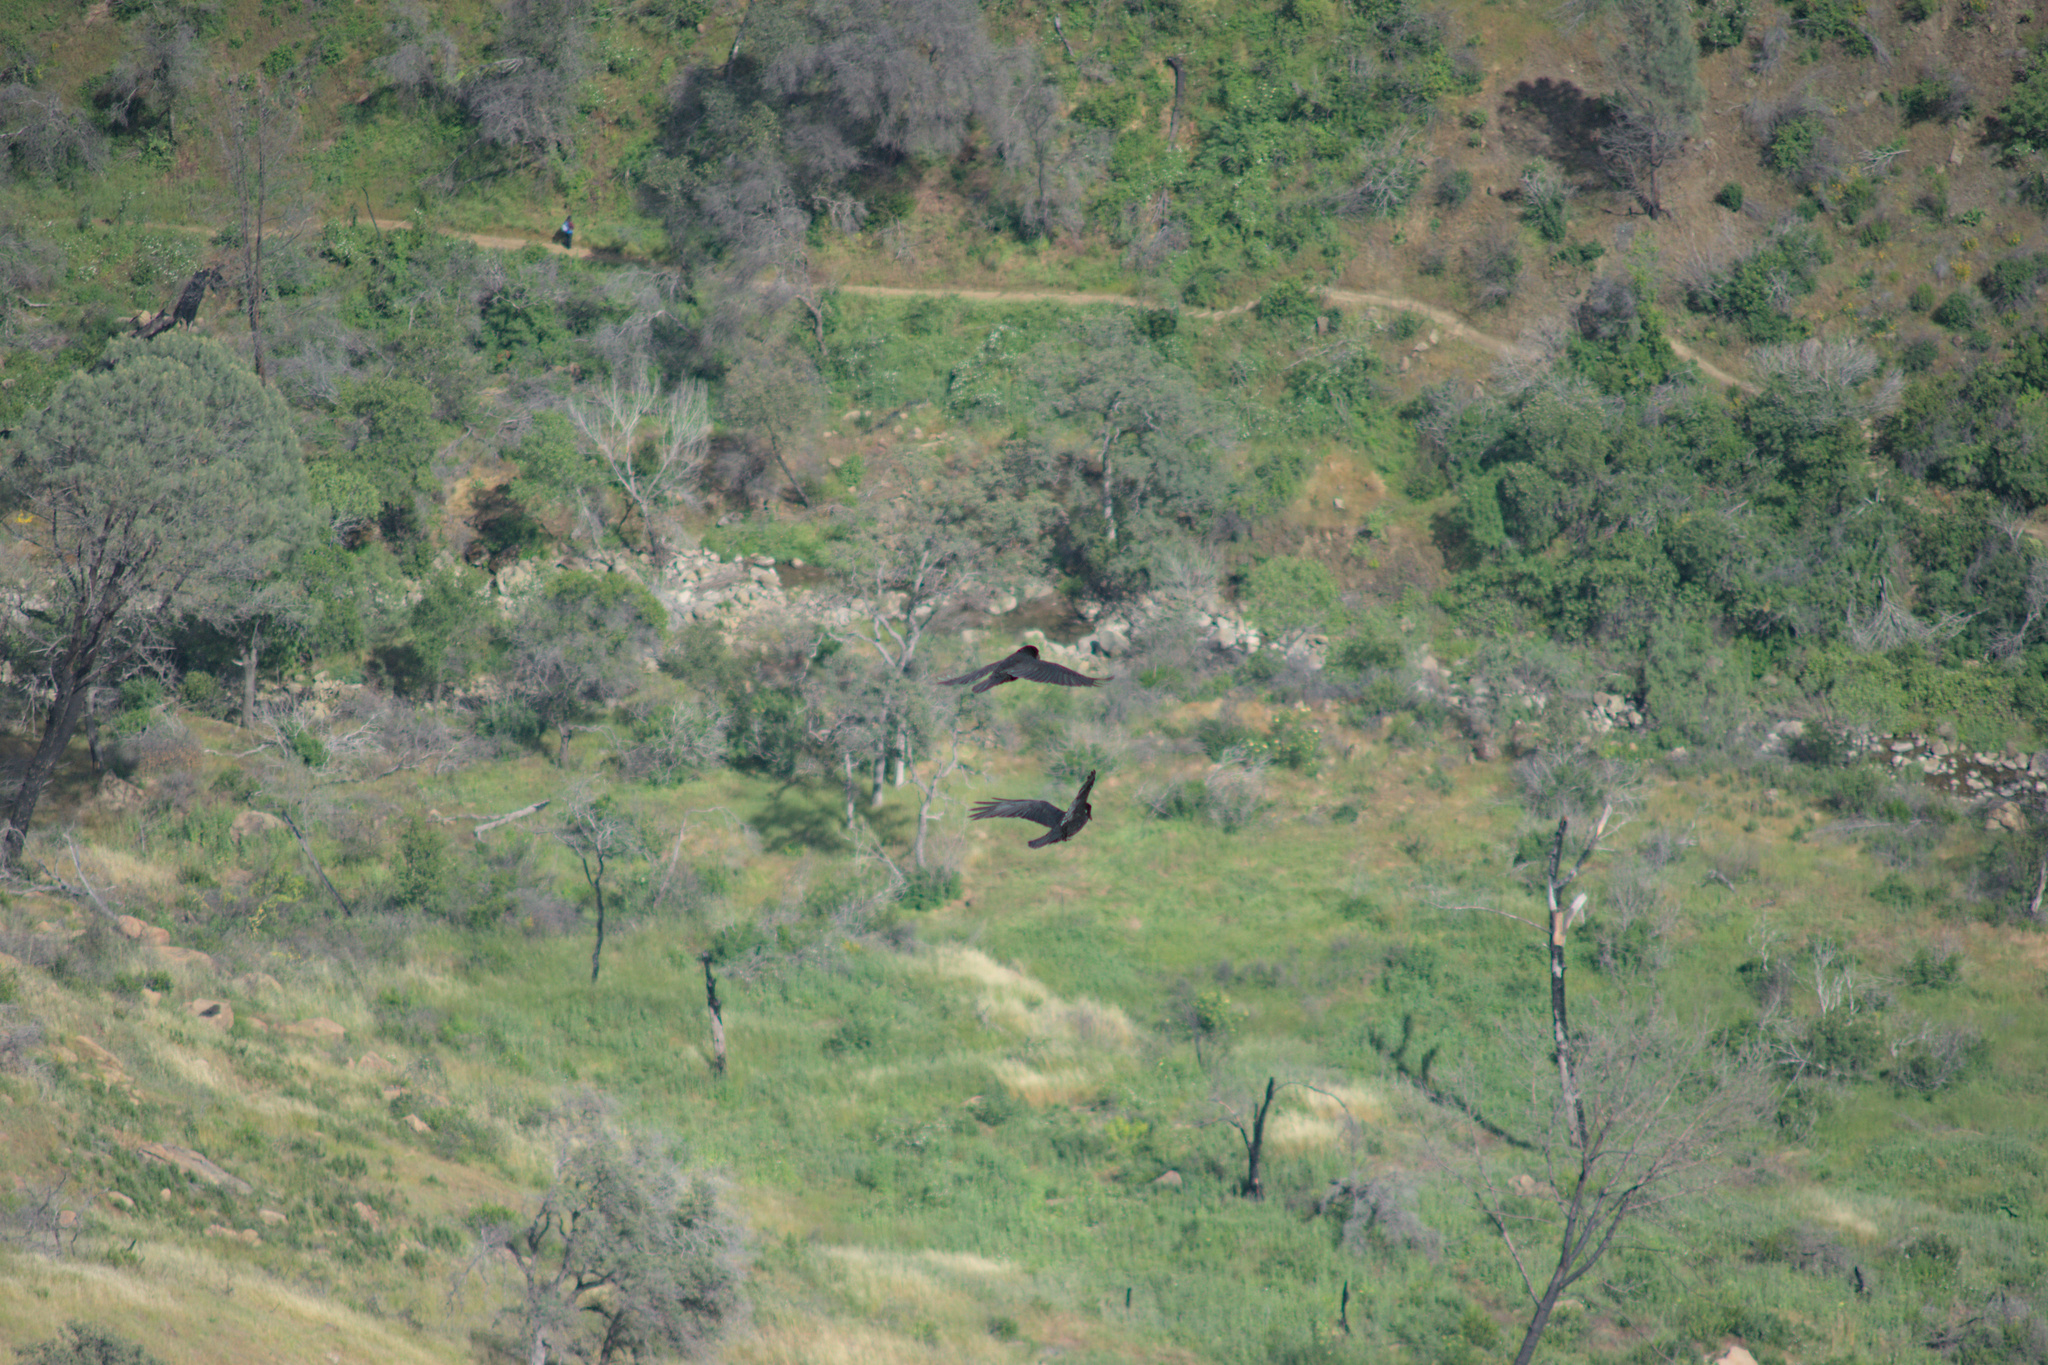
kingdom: Animalia
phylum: Chordata
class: Aves
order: Passeriformes
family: Corvidae
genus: Corvus
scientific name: Corvus corax
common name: Common raven
